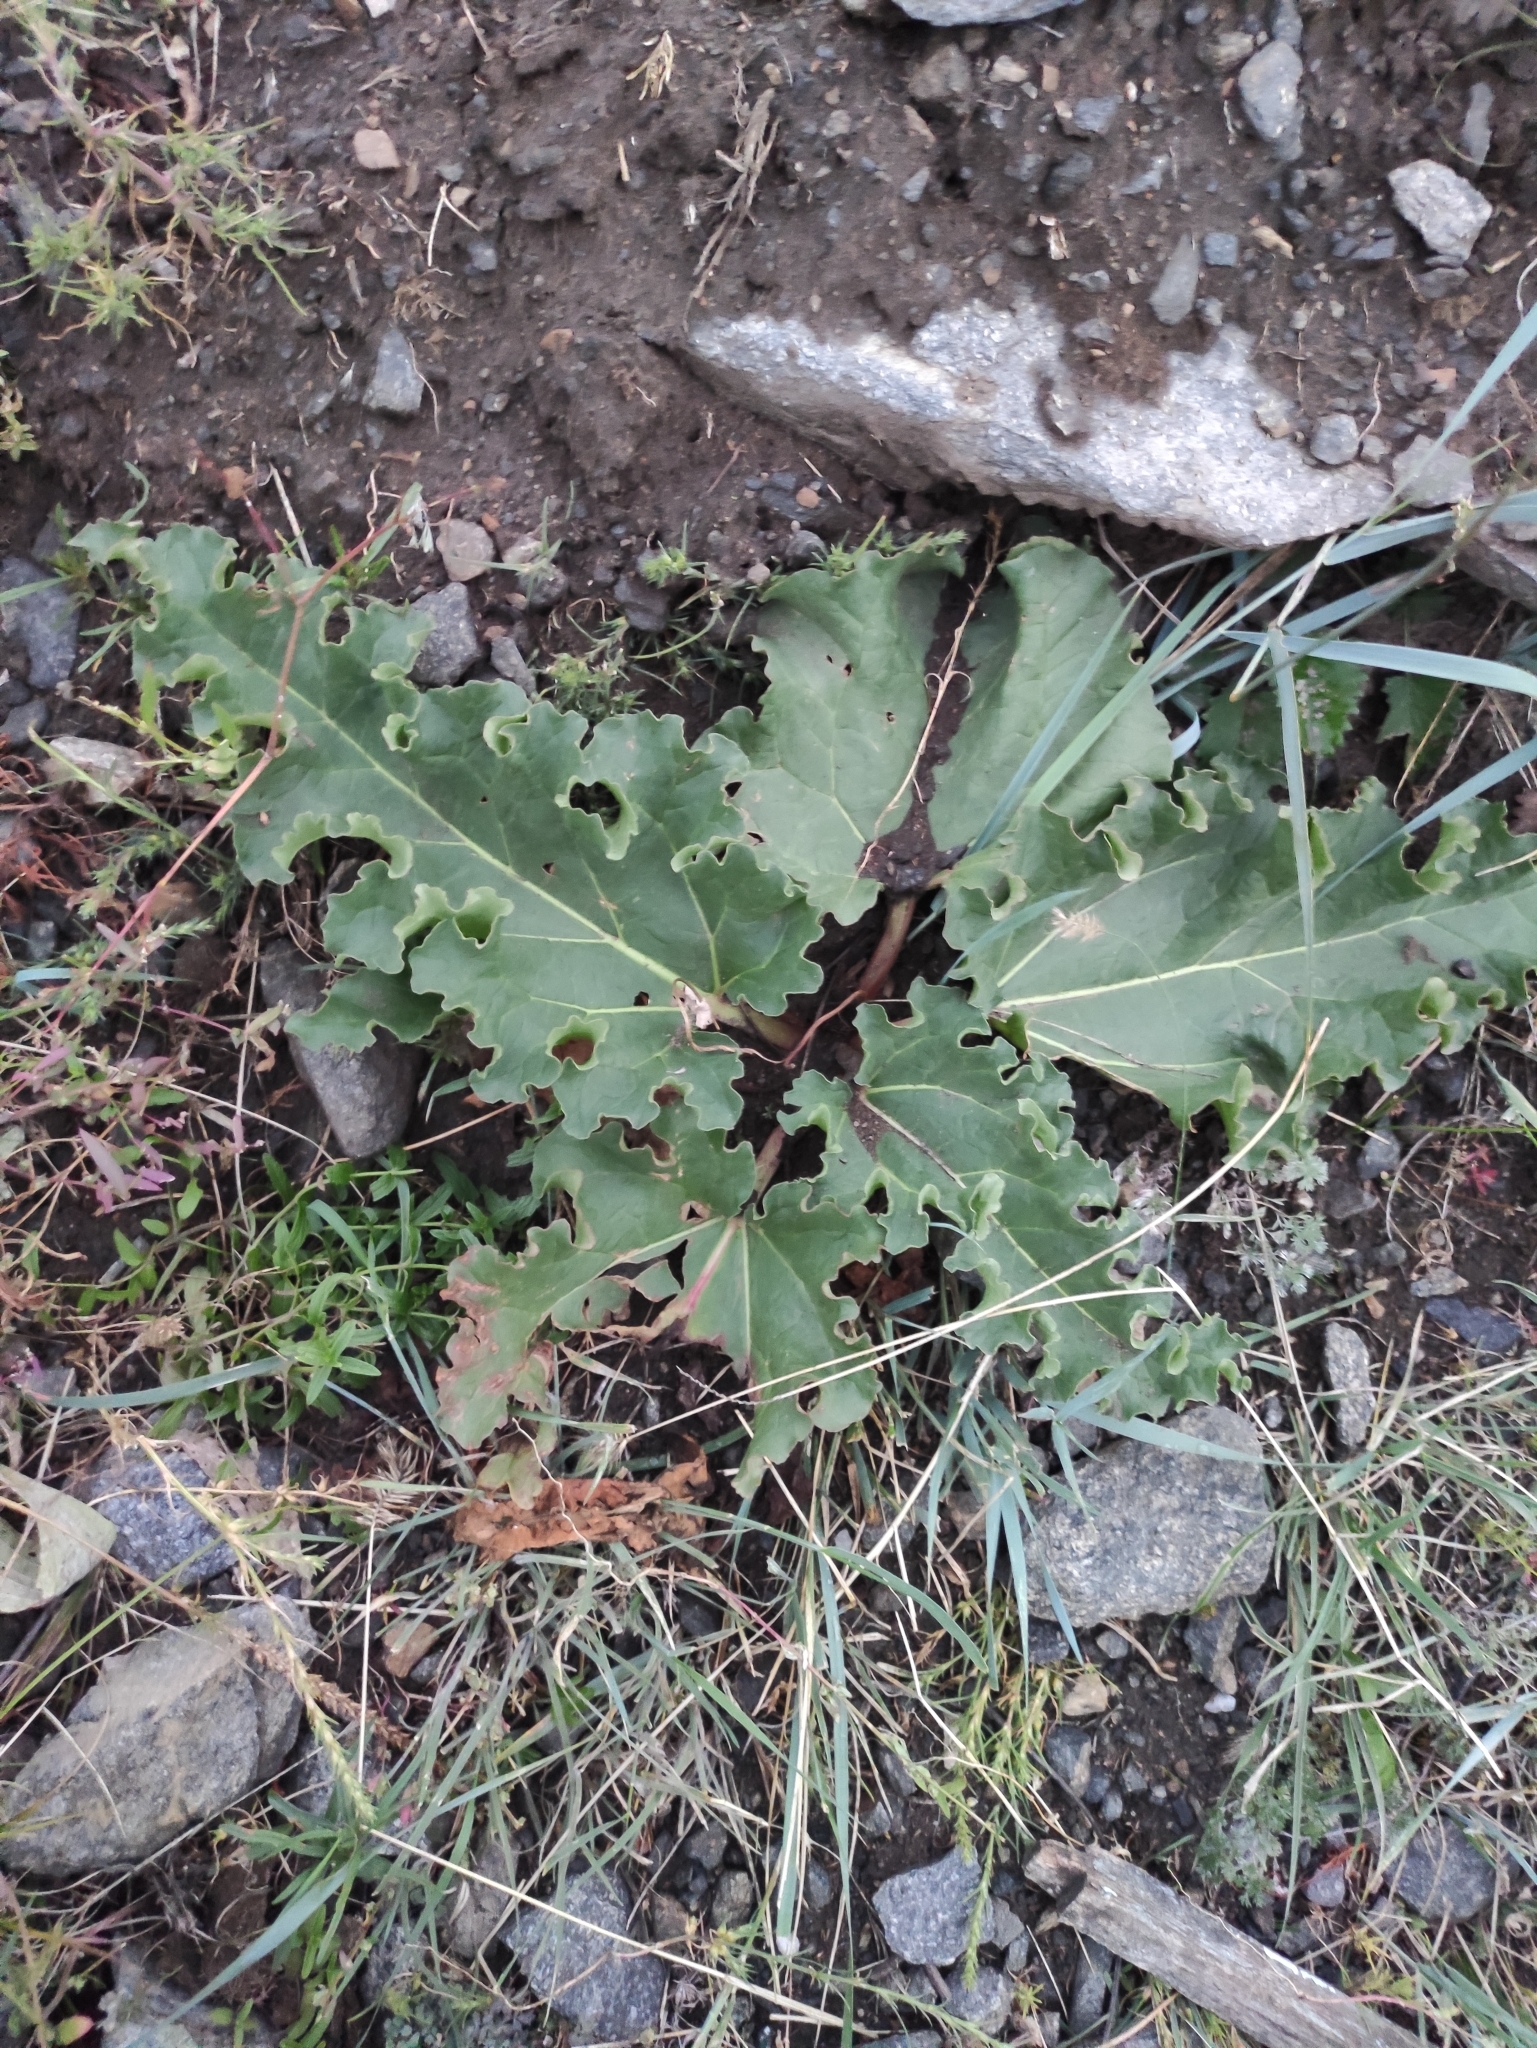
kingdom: Plantae
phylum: Tracheophyta
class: Magnoliopsida
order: Caryophyllales
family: Polygonaceae
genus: Rheum
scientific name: Rheum rhabarbarum
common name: Garden rhubarb
